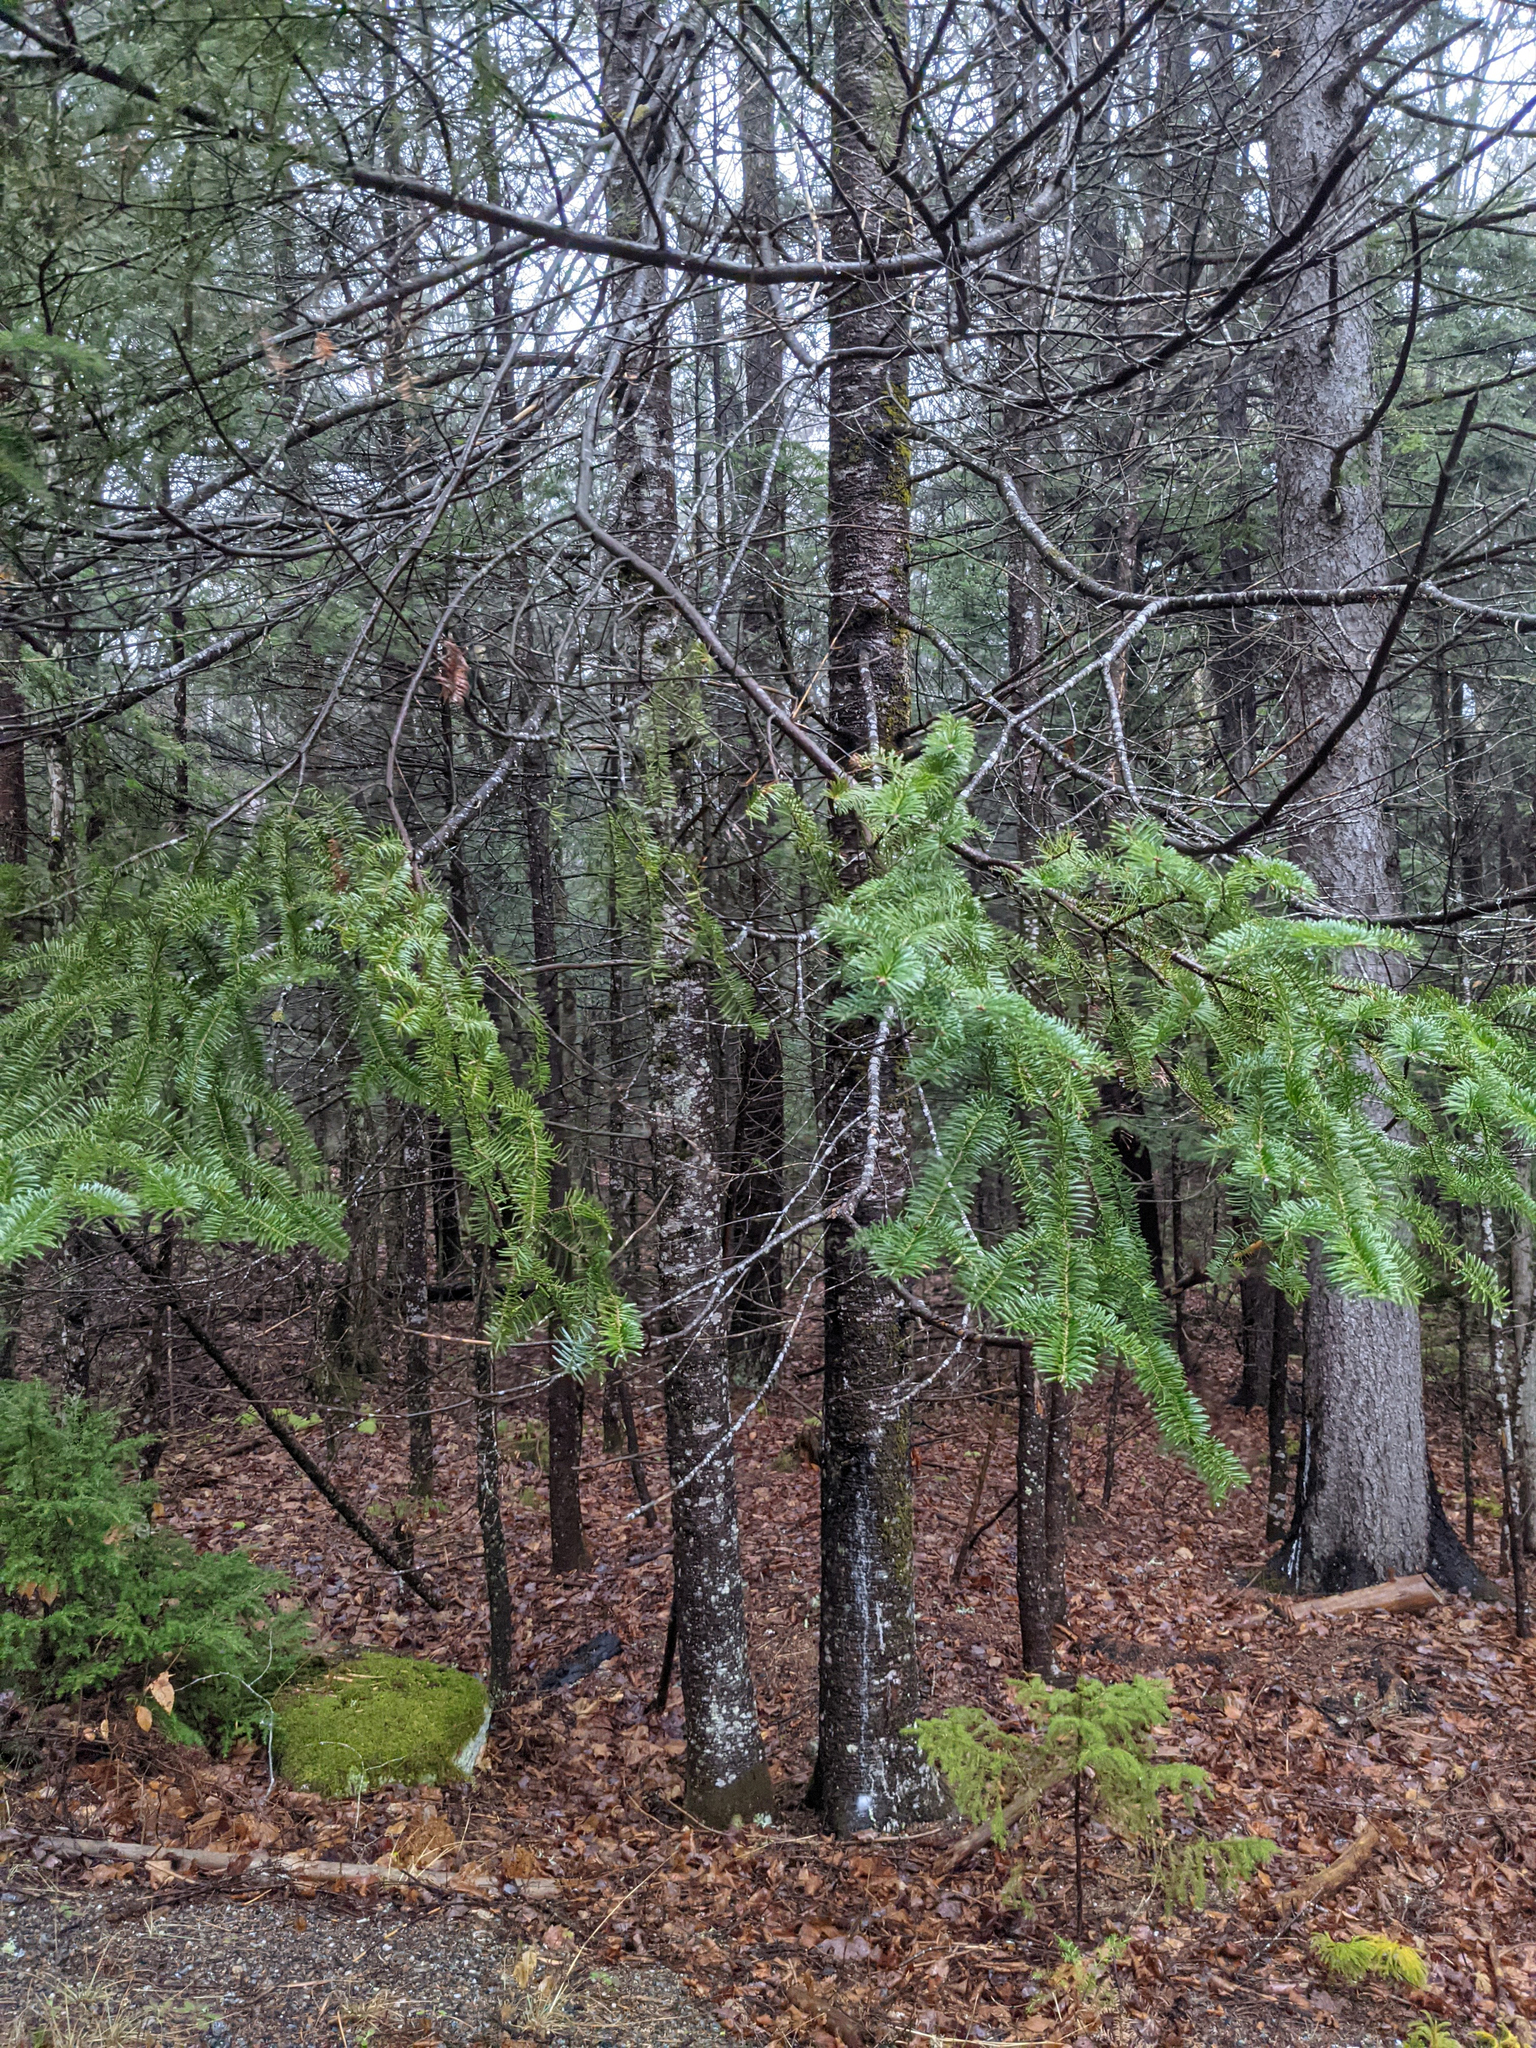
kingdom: Plantae
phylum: Tracheophyta
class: Pinopsida
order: Pinales
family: Pinaceae
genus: Abies
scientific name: Abies balsamea
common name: Balsam fir
